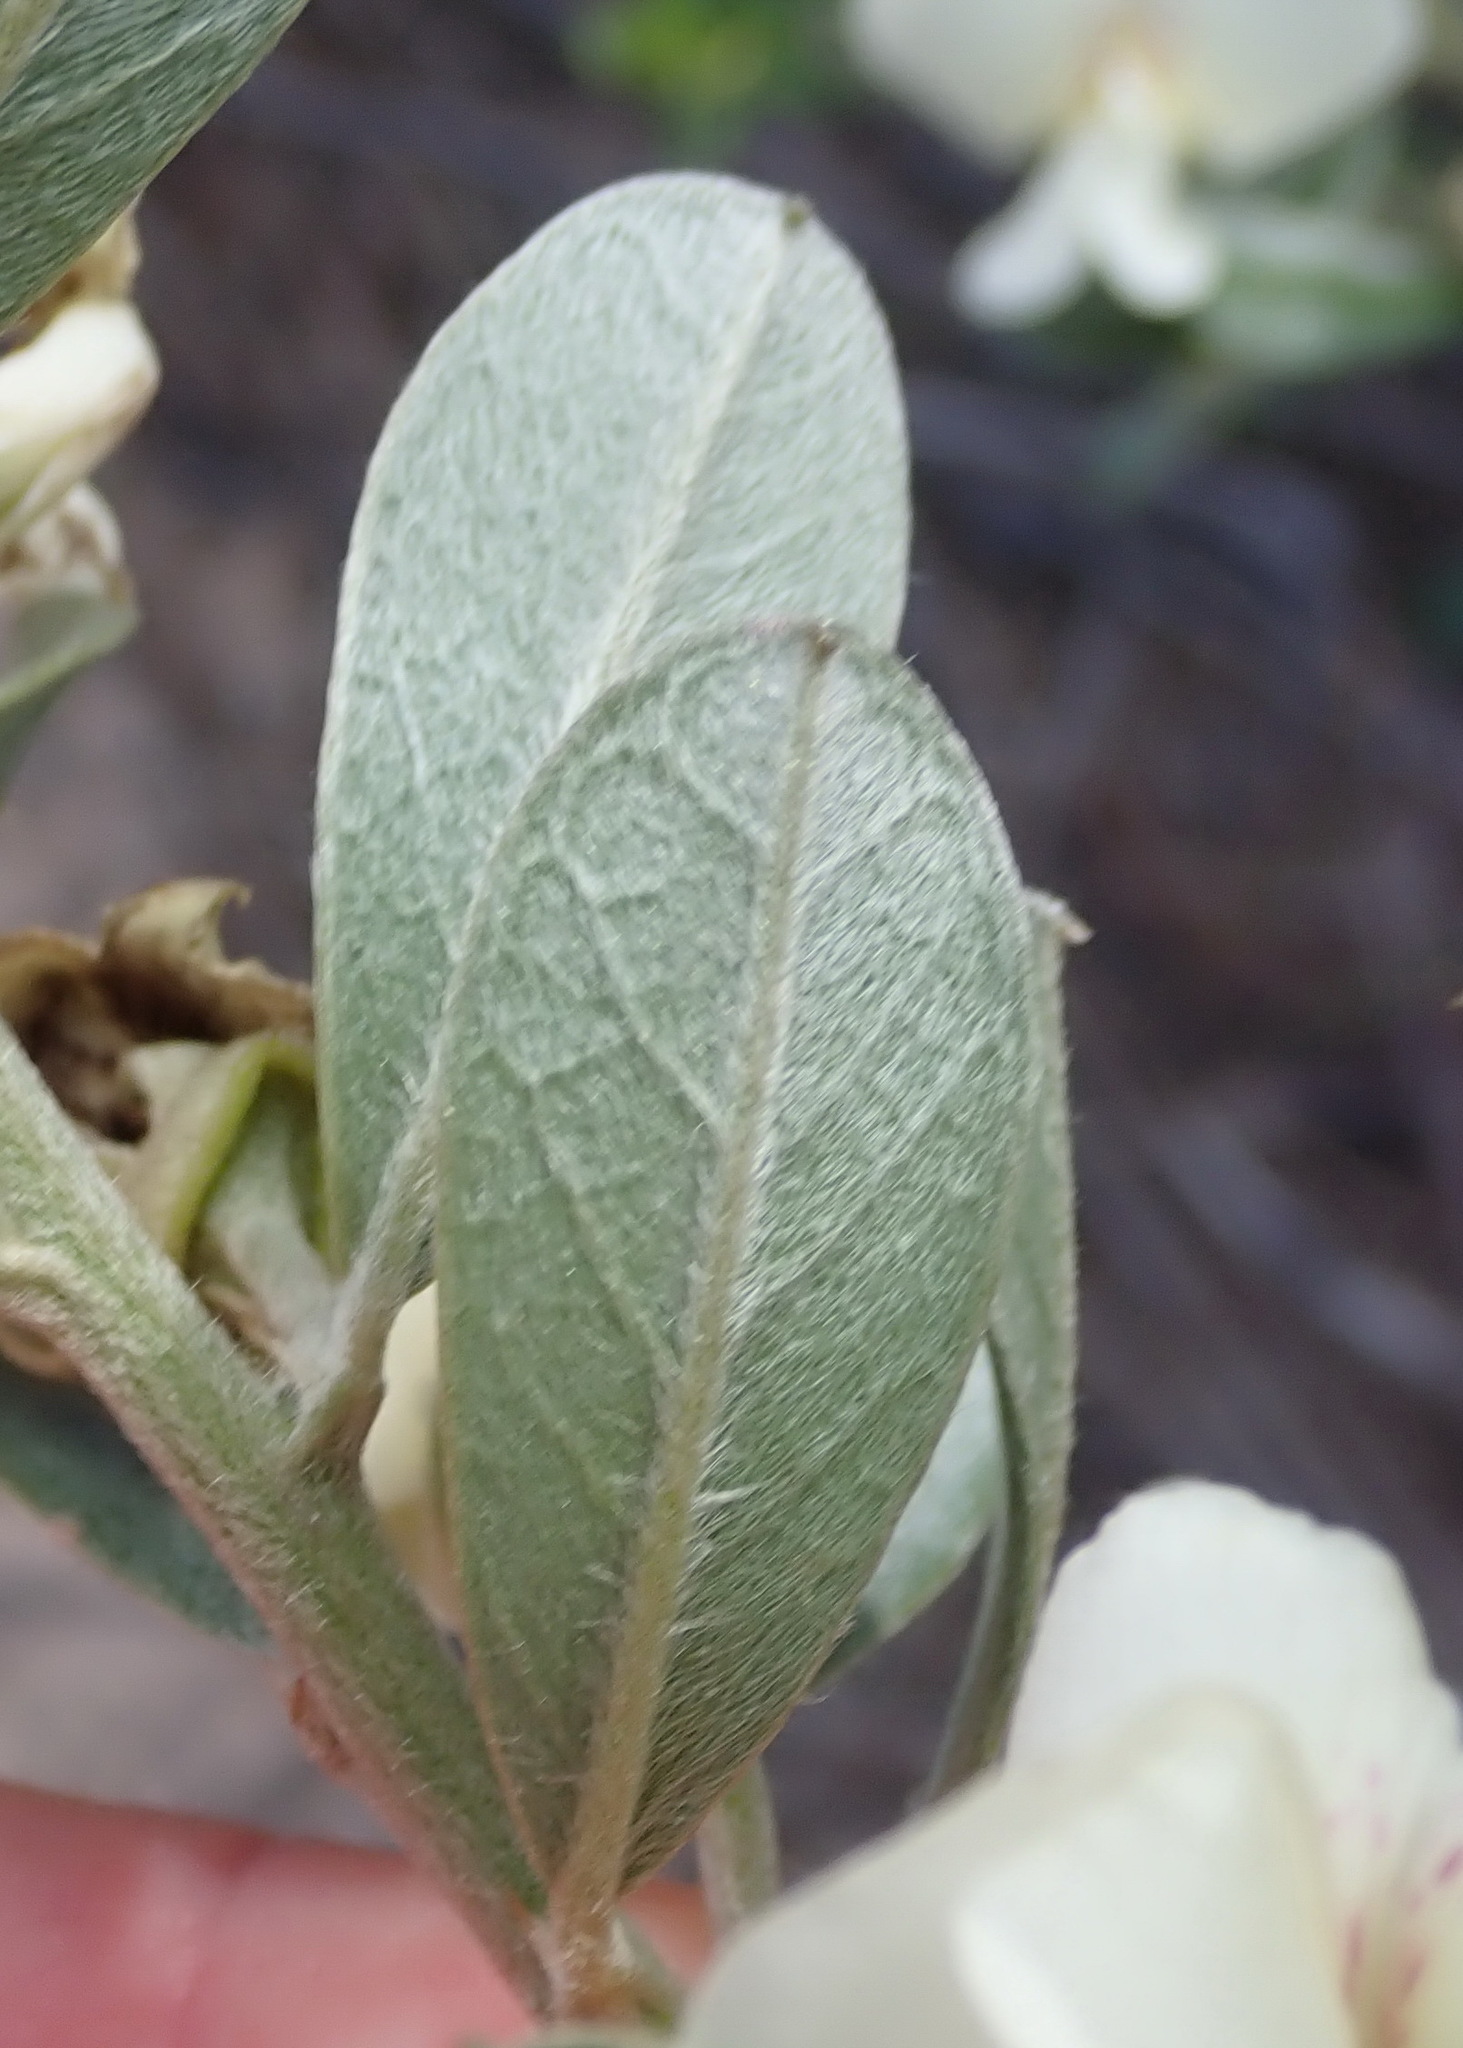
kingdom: Plantae
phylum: Tracheophyta
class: Magnoliopsida
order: Fabales
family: Fabaceae
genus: Podalyria
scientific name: Podalyria myrtillifolia
